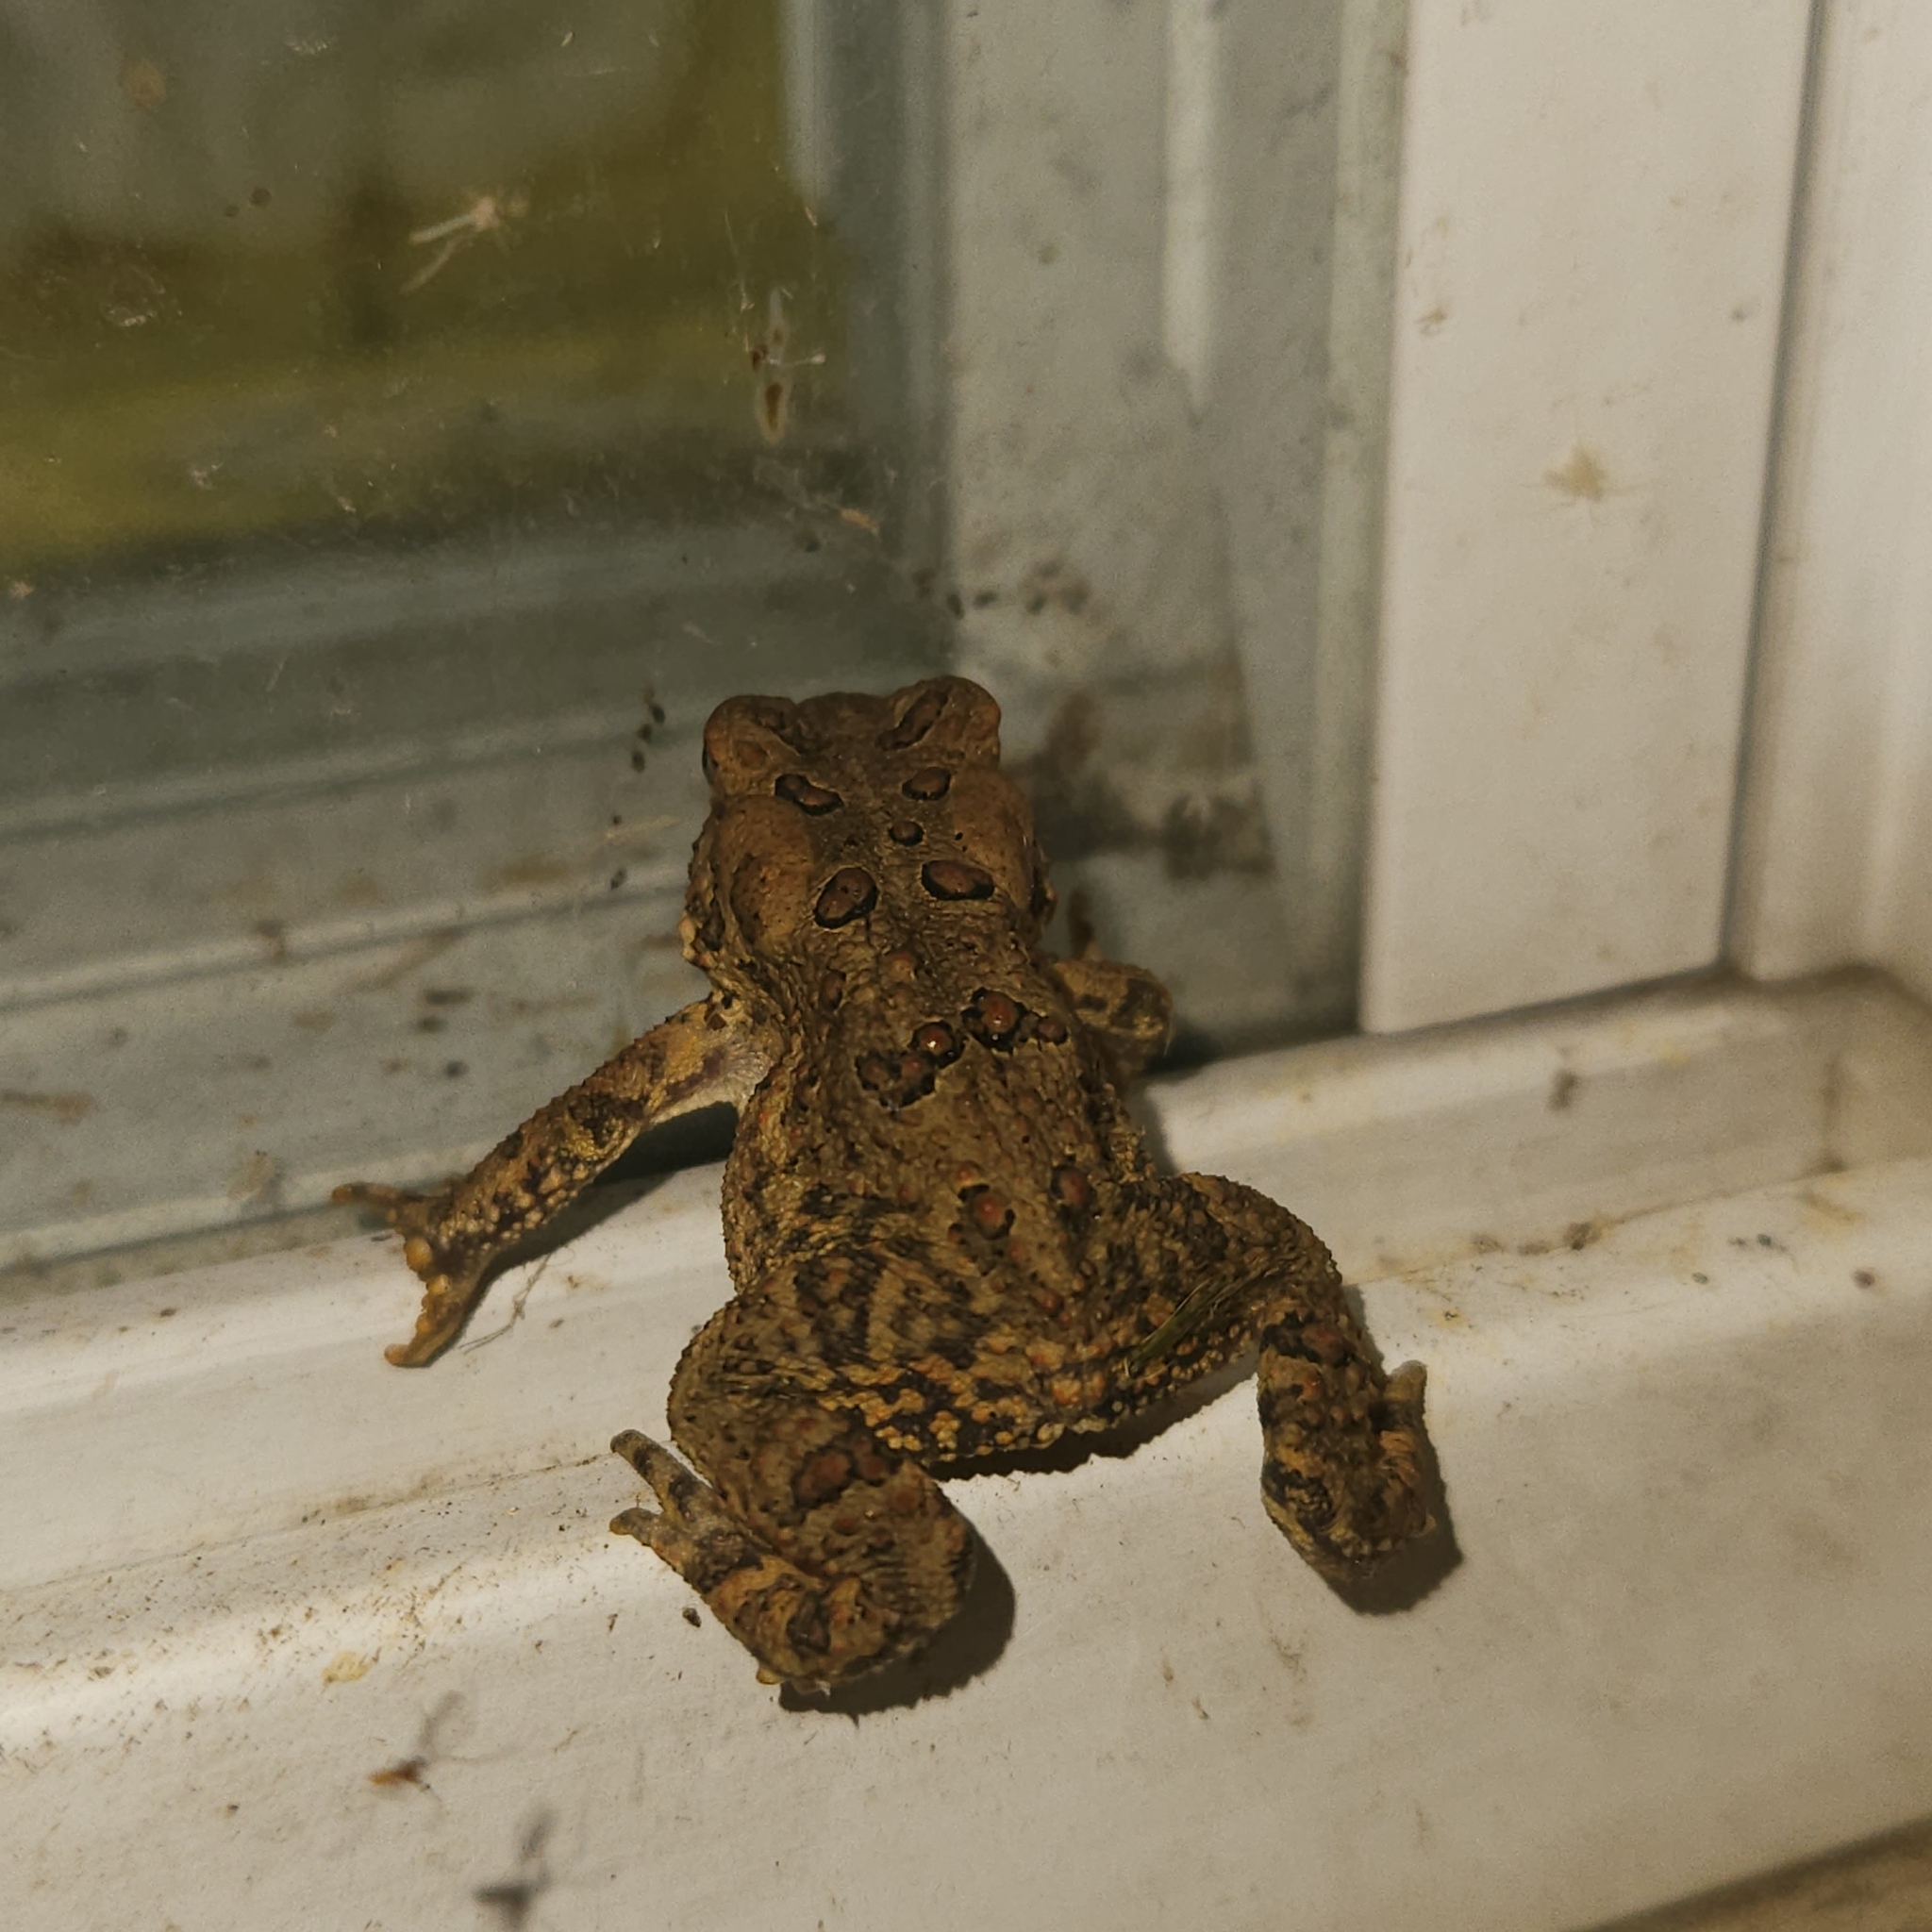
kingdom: Animalia
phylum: Chordata
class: Amphibia
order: Anura
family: Bufonidae
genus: Anaxyrus
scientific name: Anaxyrus americanus
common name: American toad
